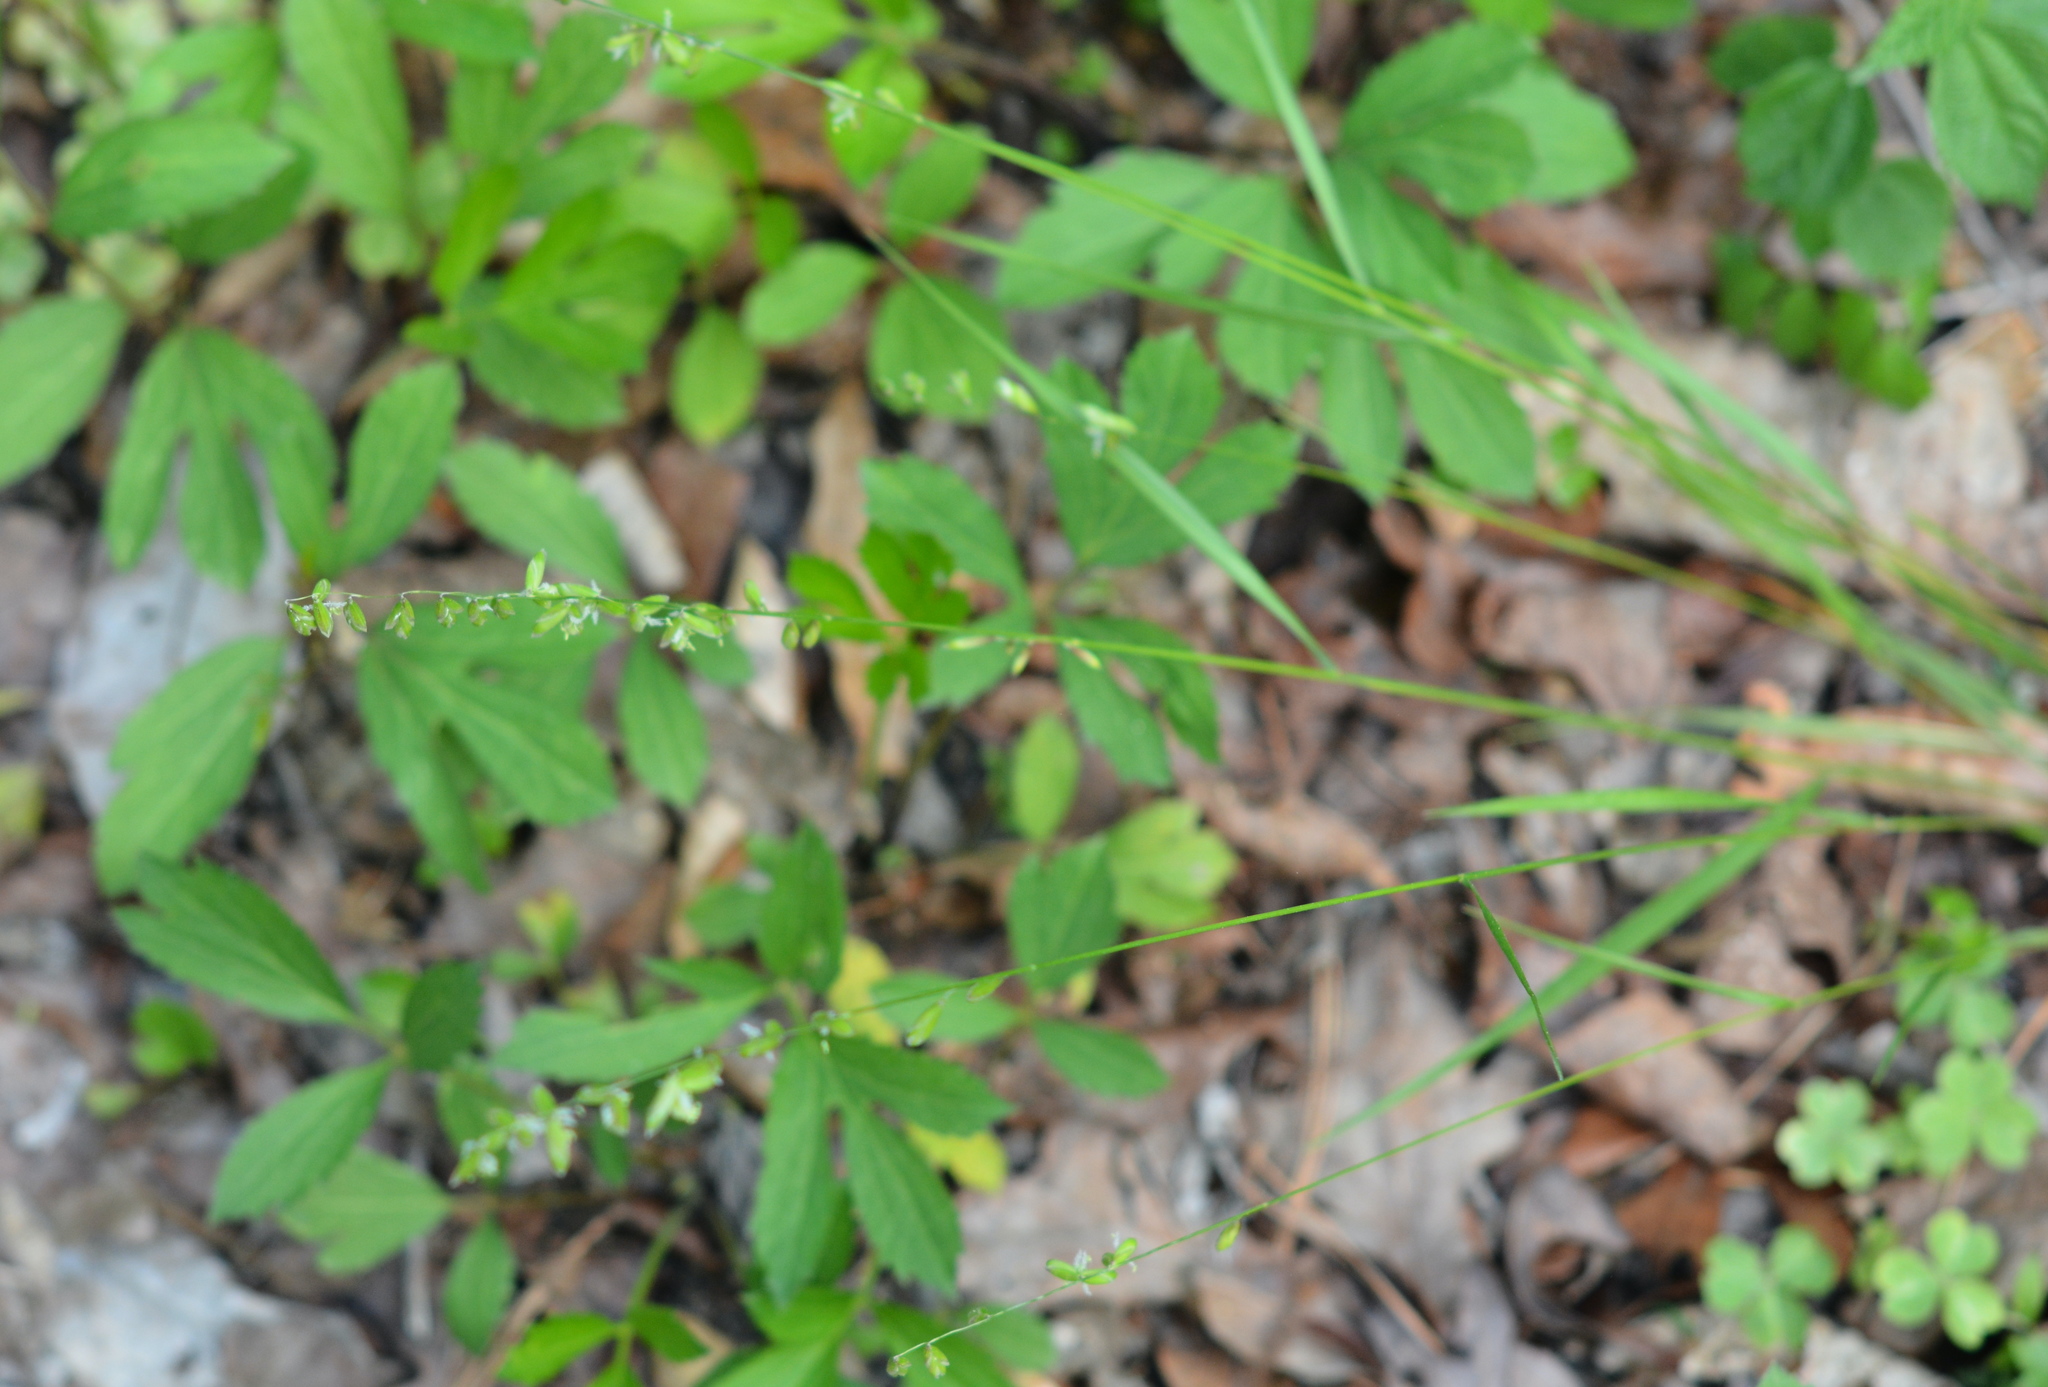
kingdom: Plantae
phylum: Tracheophyta
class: Liliopsida
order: Poales
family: Poaceae
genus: Melica
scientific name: Melica mutica
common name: Two-flower melic
